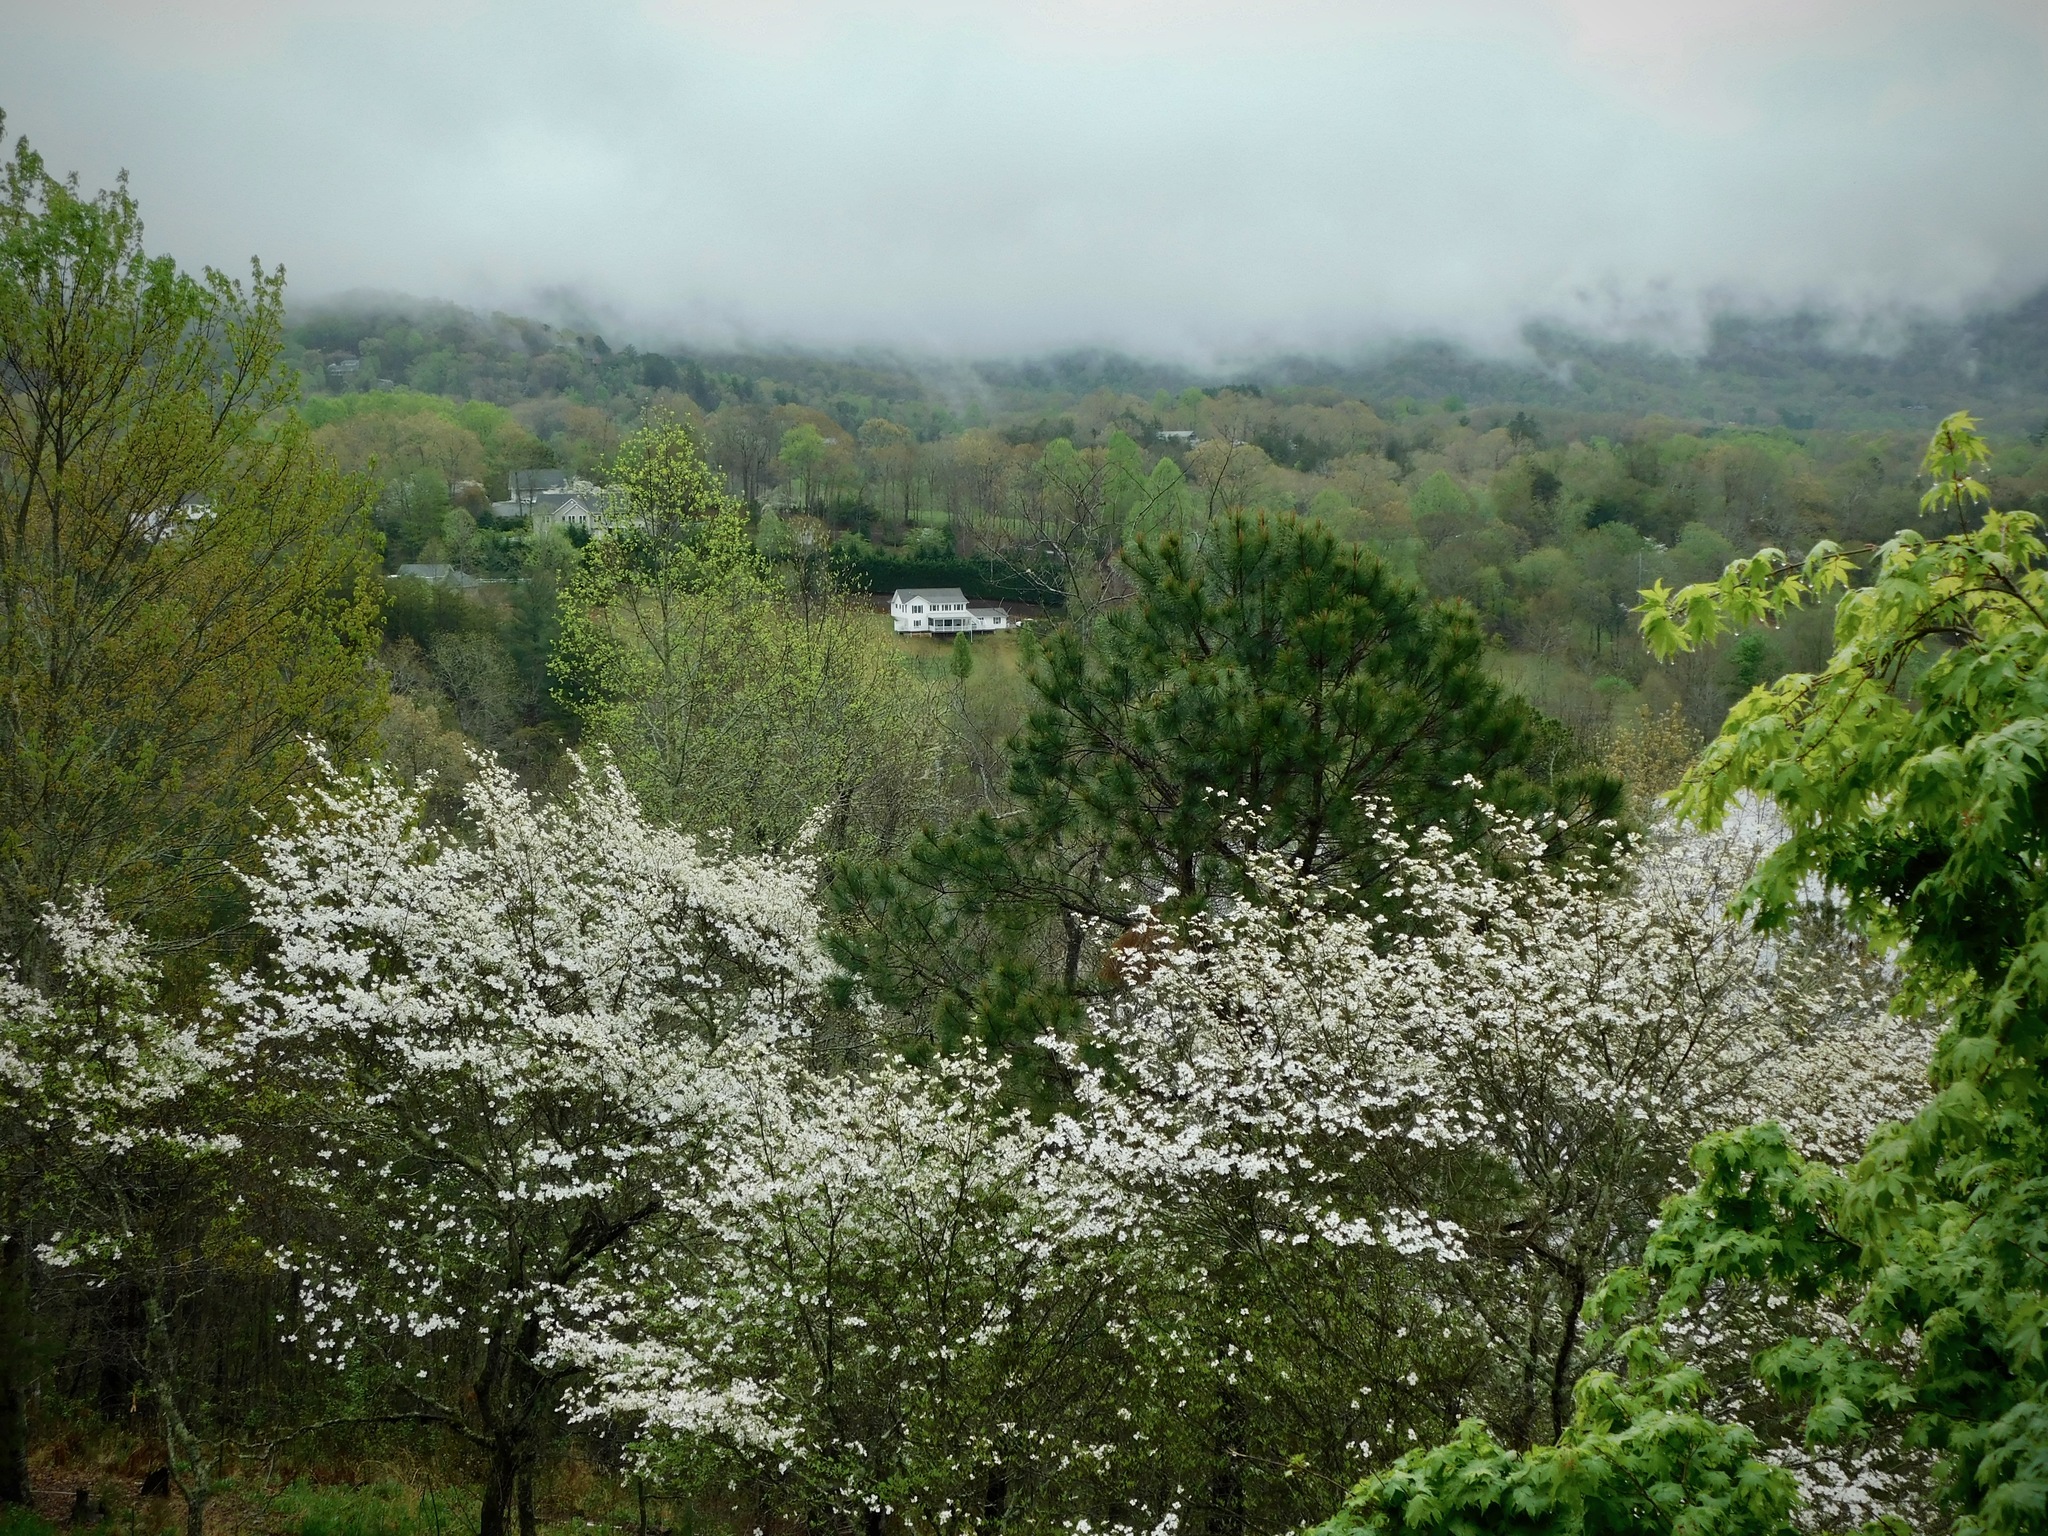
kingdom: Plantae
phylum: Tracheophyta
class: Magnoliopsida
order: Cornales
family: Cornaceae
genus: Cornus
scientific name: Cornus florida
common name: Flowering dogwood
